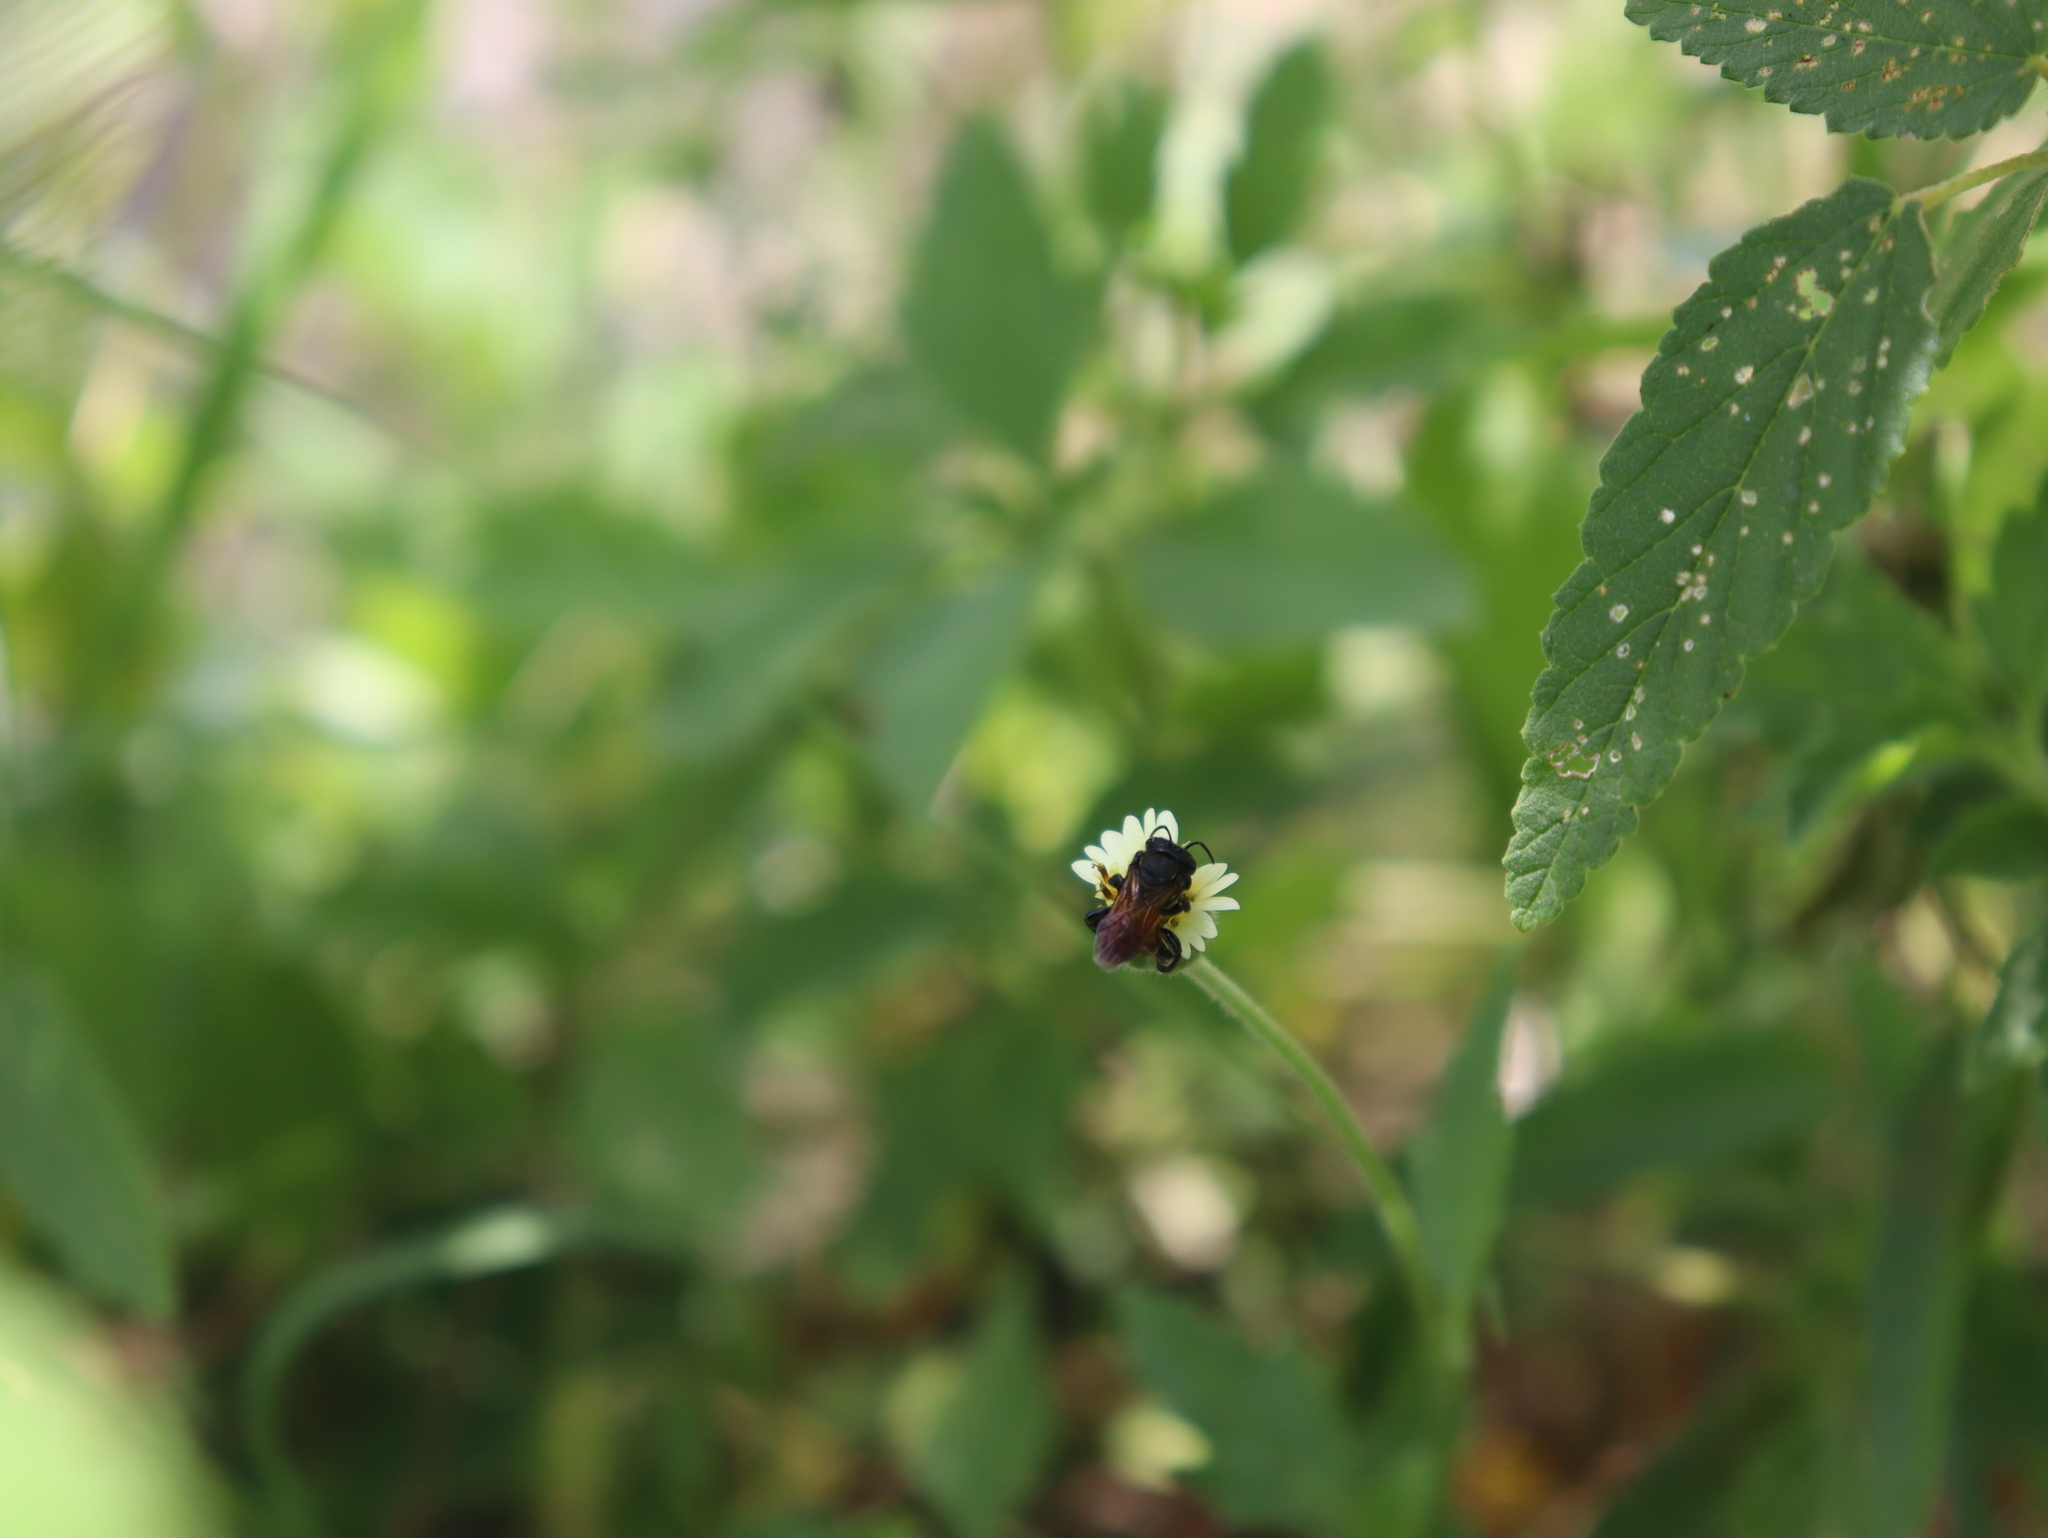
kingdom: Animalia
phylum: Arthropoda
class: Insecta
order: Hymenoptera
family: Apidae
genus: Cephalotrigona
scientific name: Cephalotrigona zexmeniae
